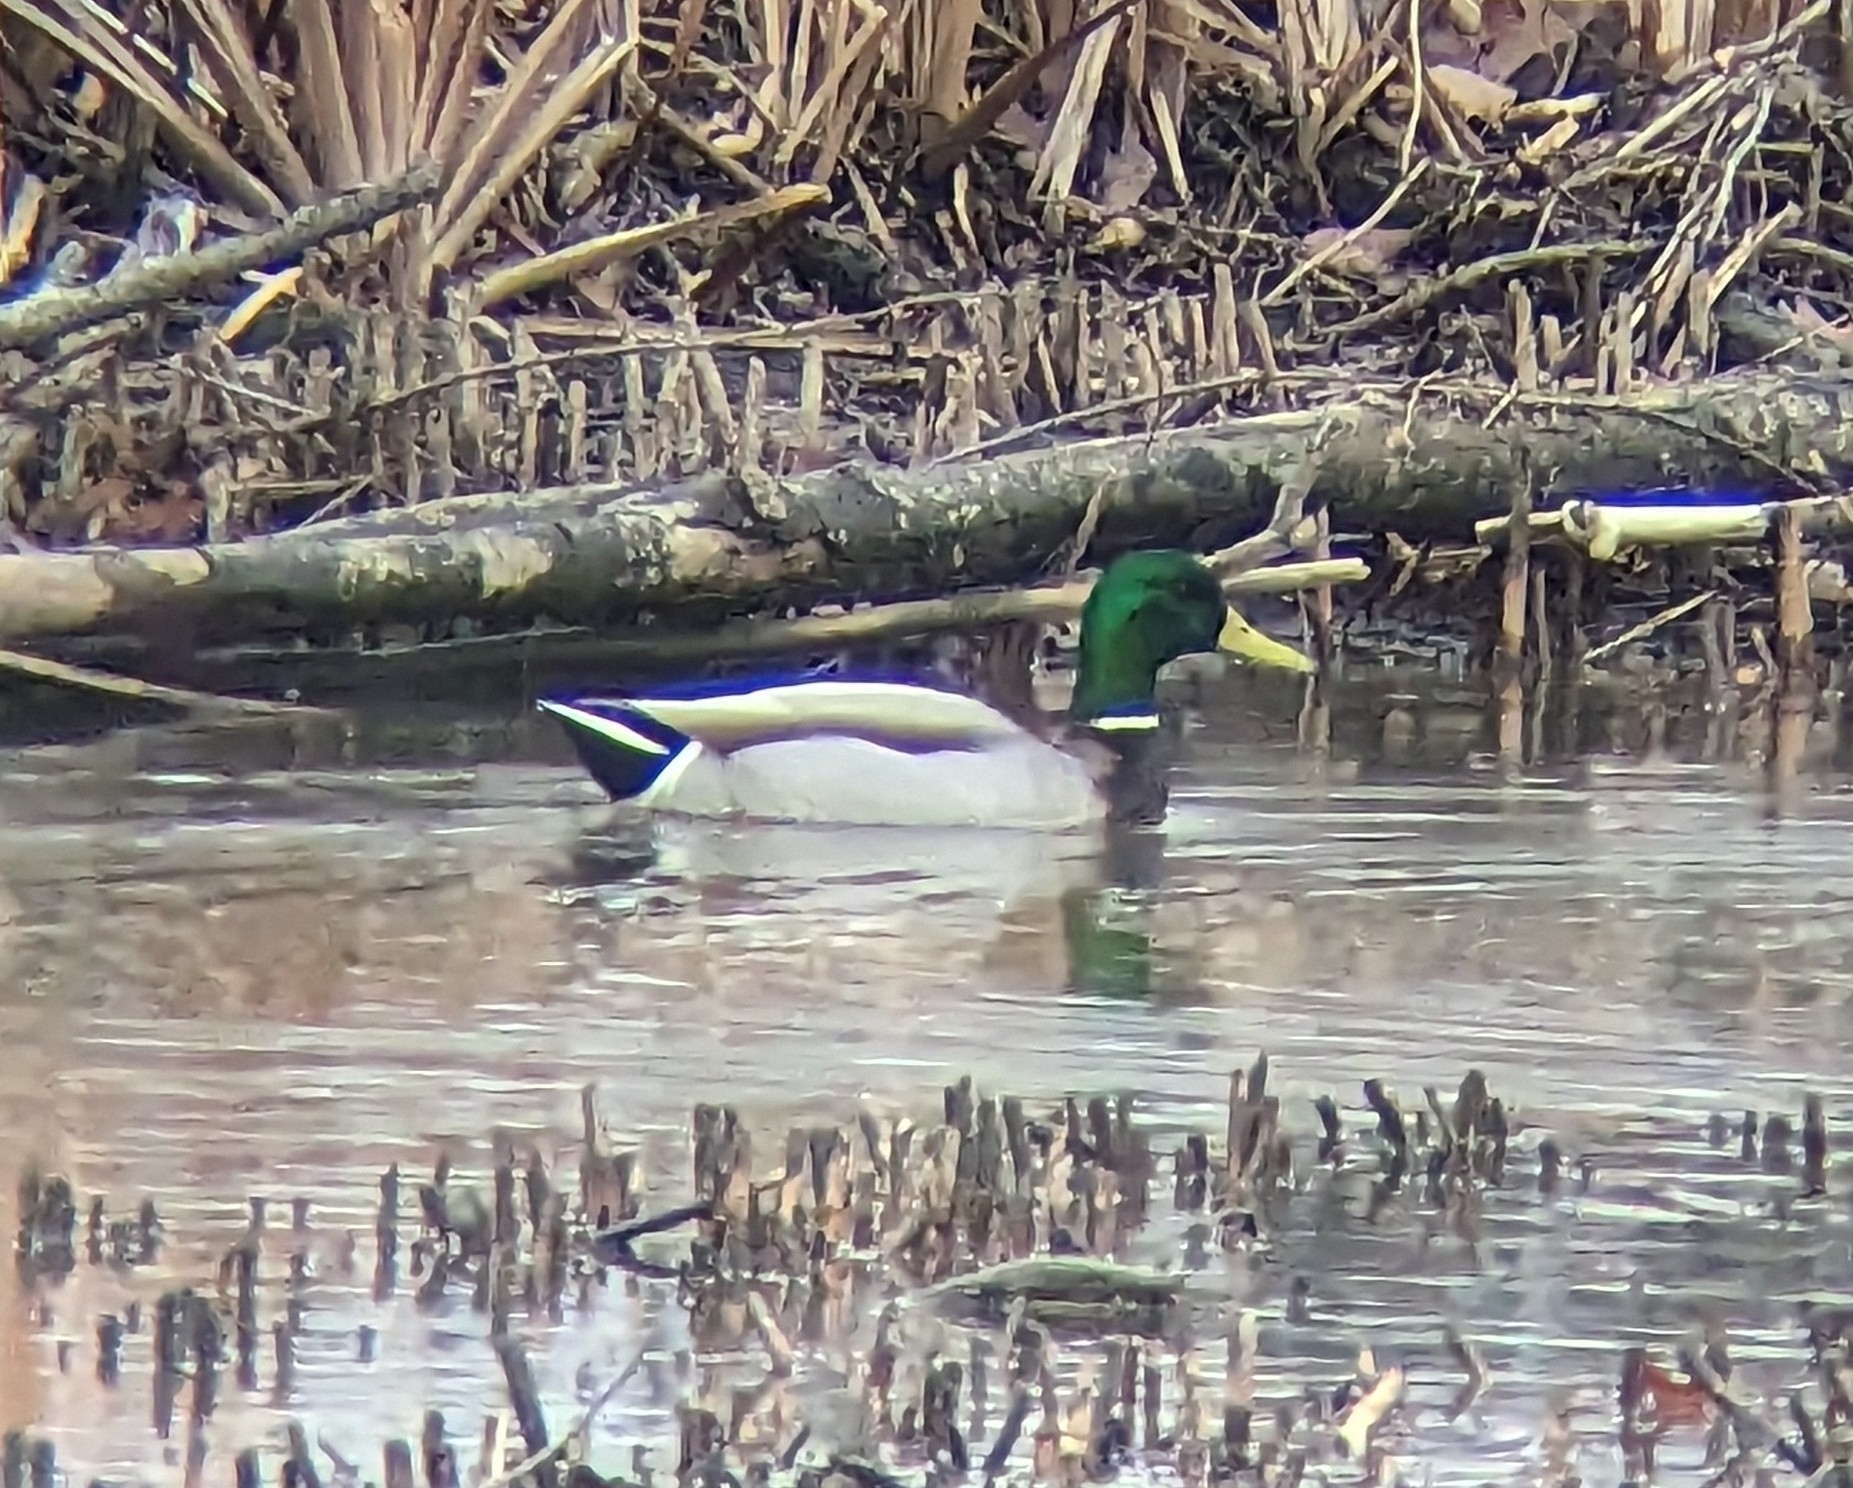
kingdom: Animalia
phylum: Chordata
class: Aves
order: Anseriformes
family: Anatidae
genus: Anas
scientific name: Anas platyrhynchos
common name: Mallard
